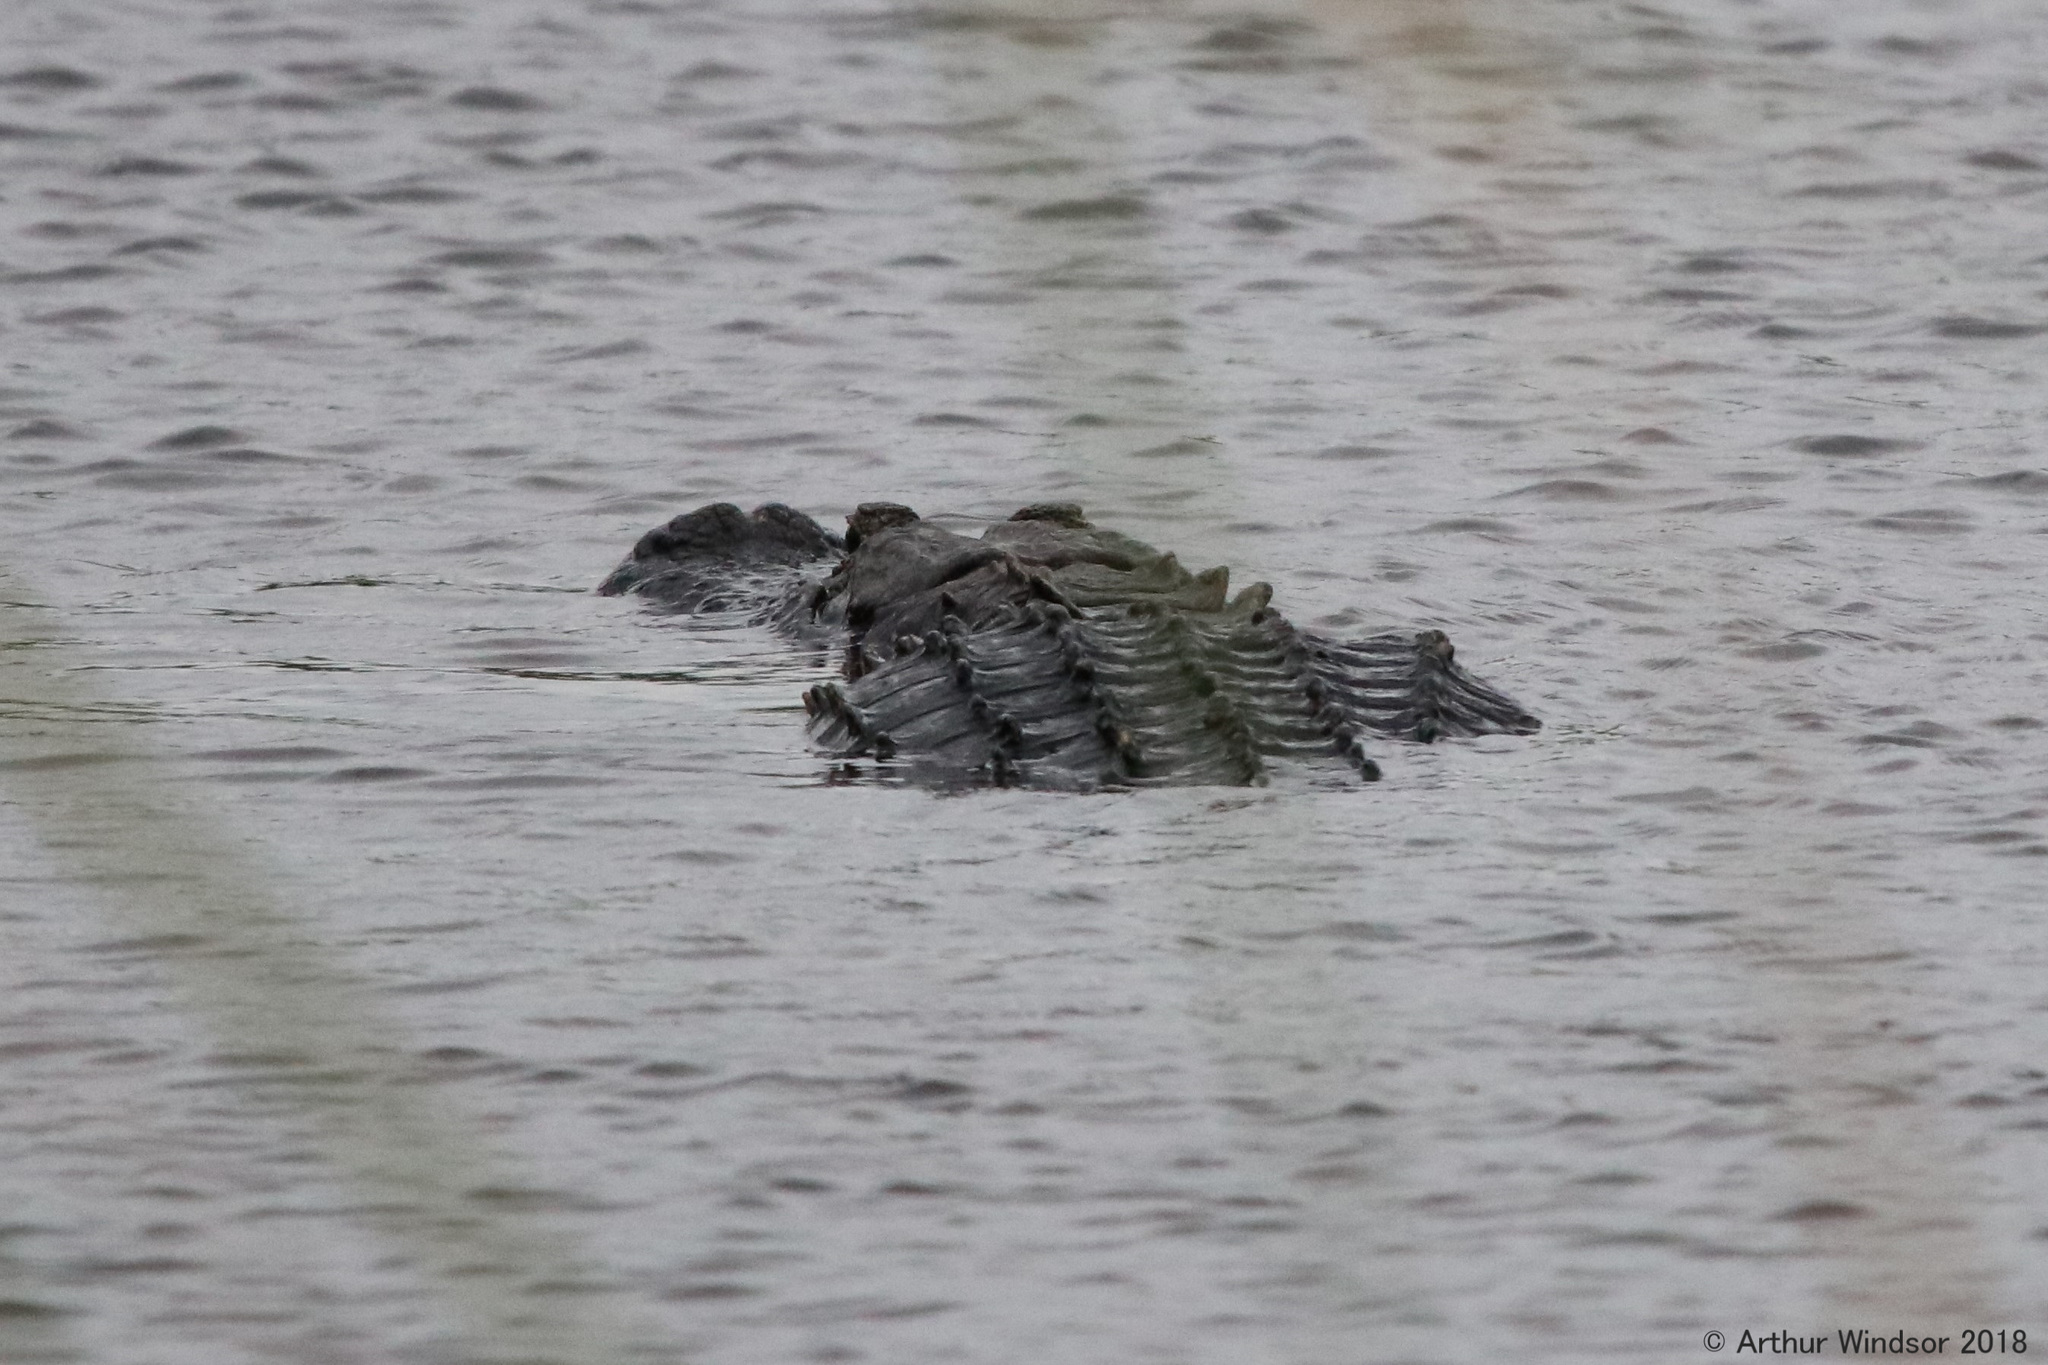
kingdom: Animalia
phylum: Chordata
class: Crocodylia
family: Alligatoridae
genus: Alligator
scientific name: Alligator mississippiensis
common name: American alligator
